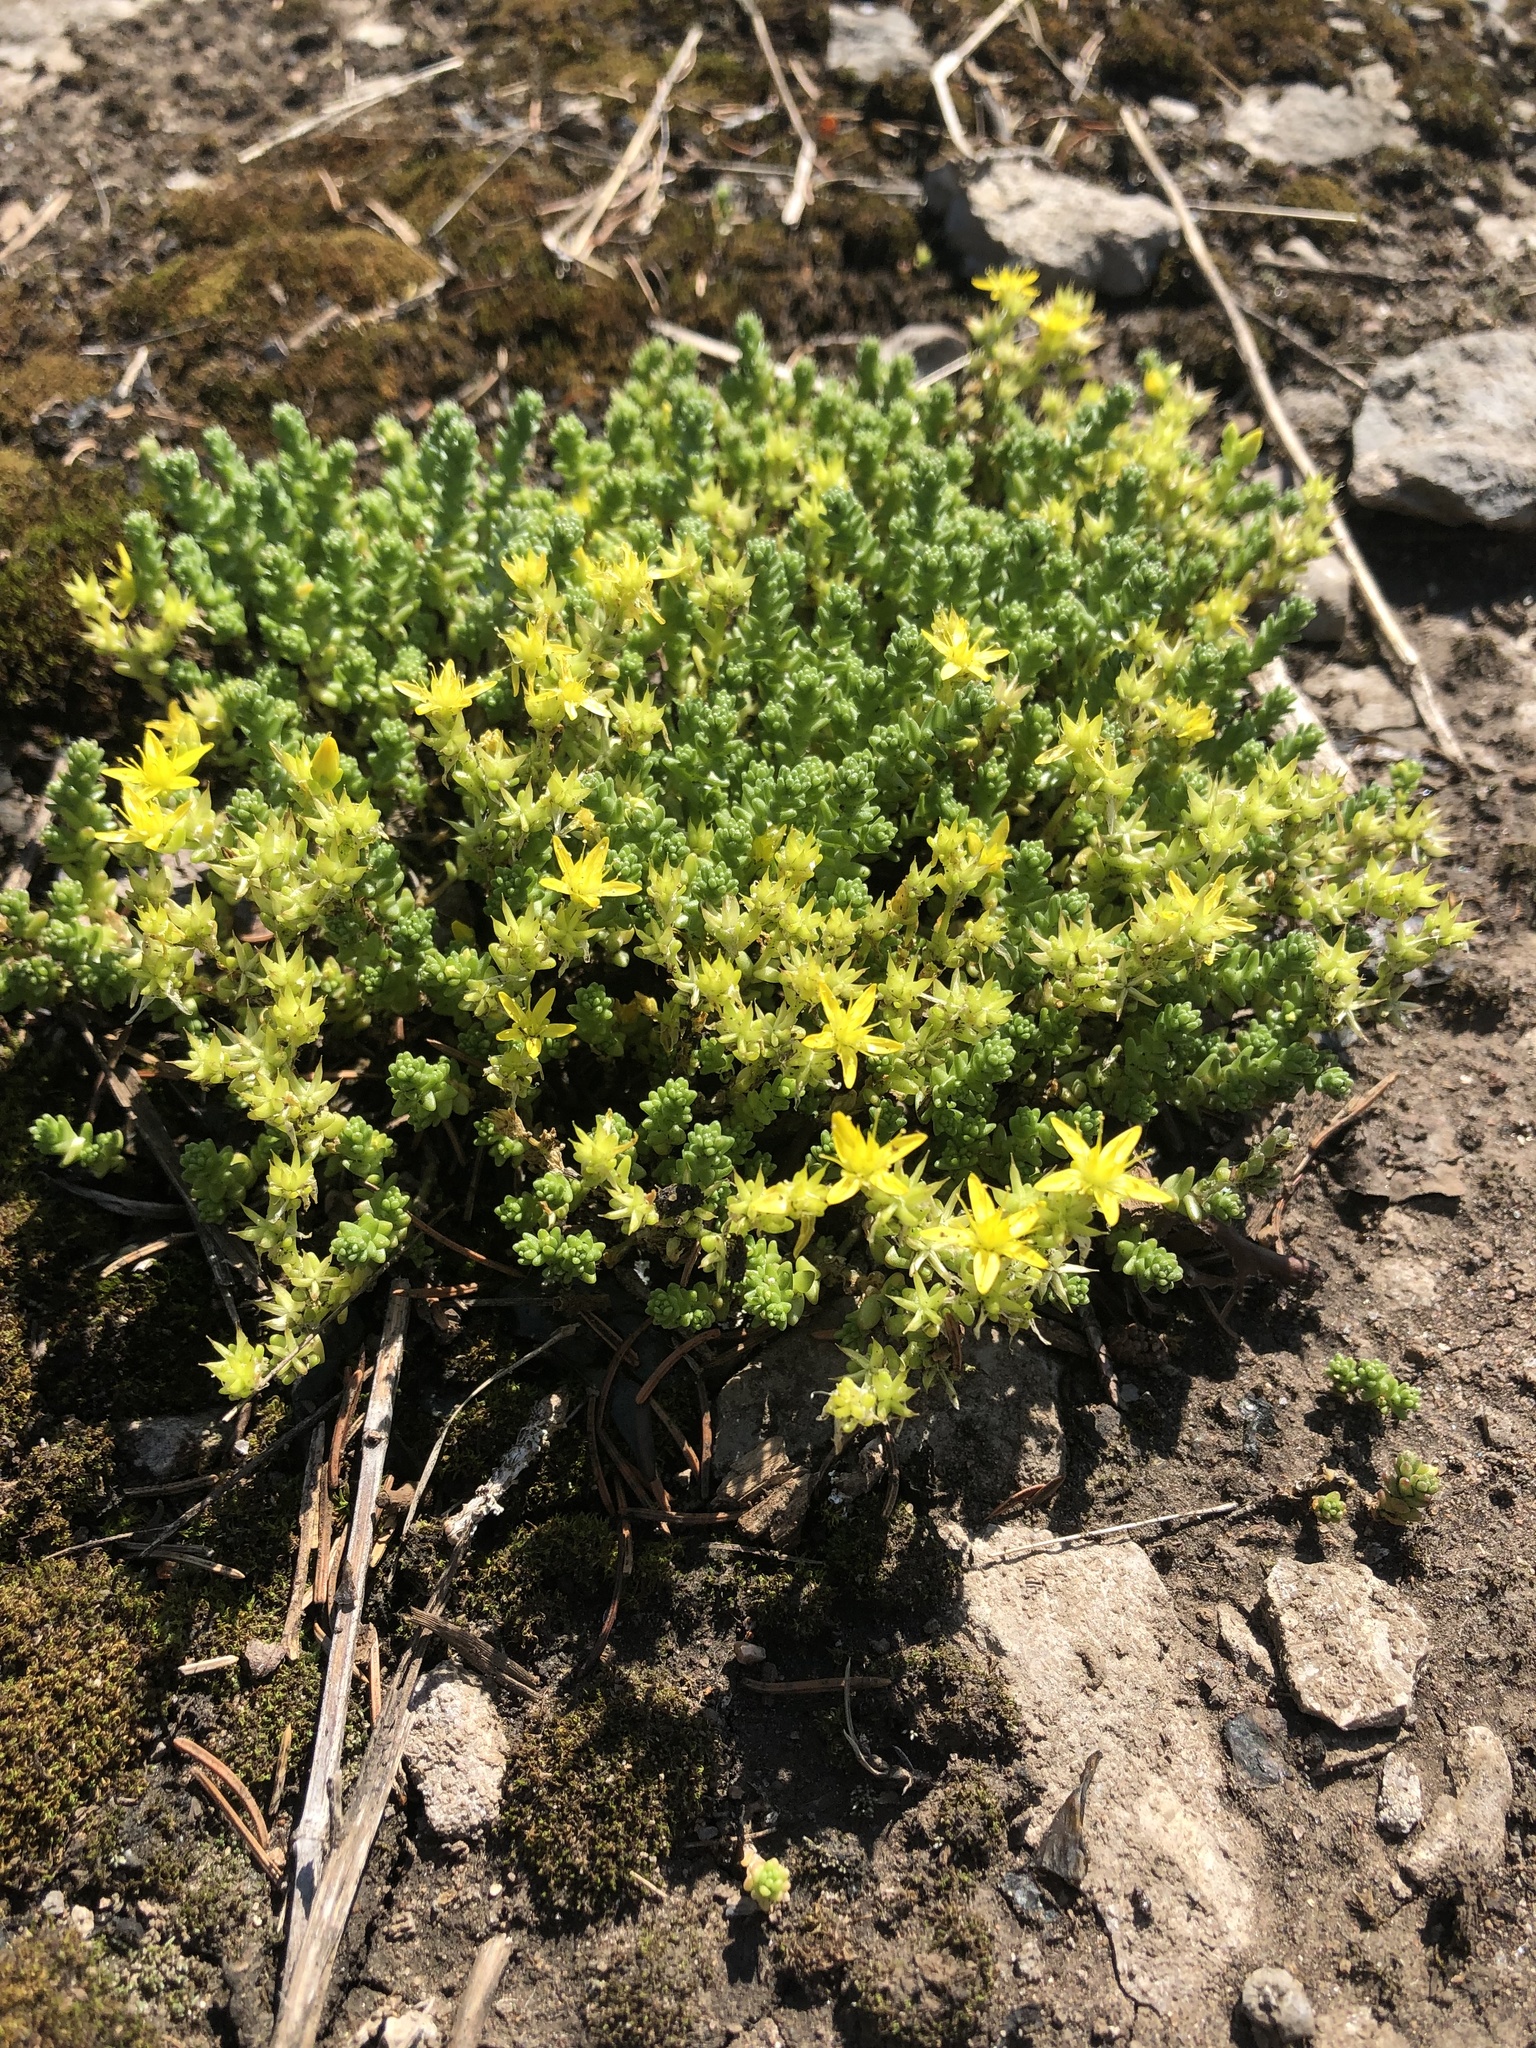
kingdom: Plantae
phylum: Tracheophyta
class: Magnoliopsida
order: Saxifragales
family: Crassulaceae
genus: Sedum
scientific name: Sedum acre
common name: Biting stonecrop
